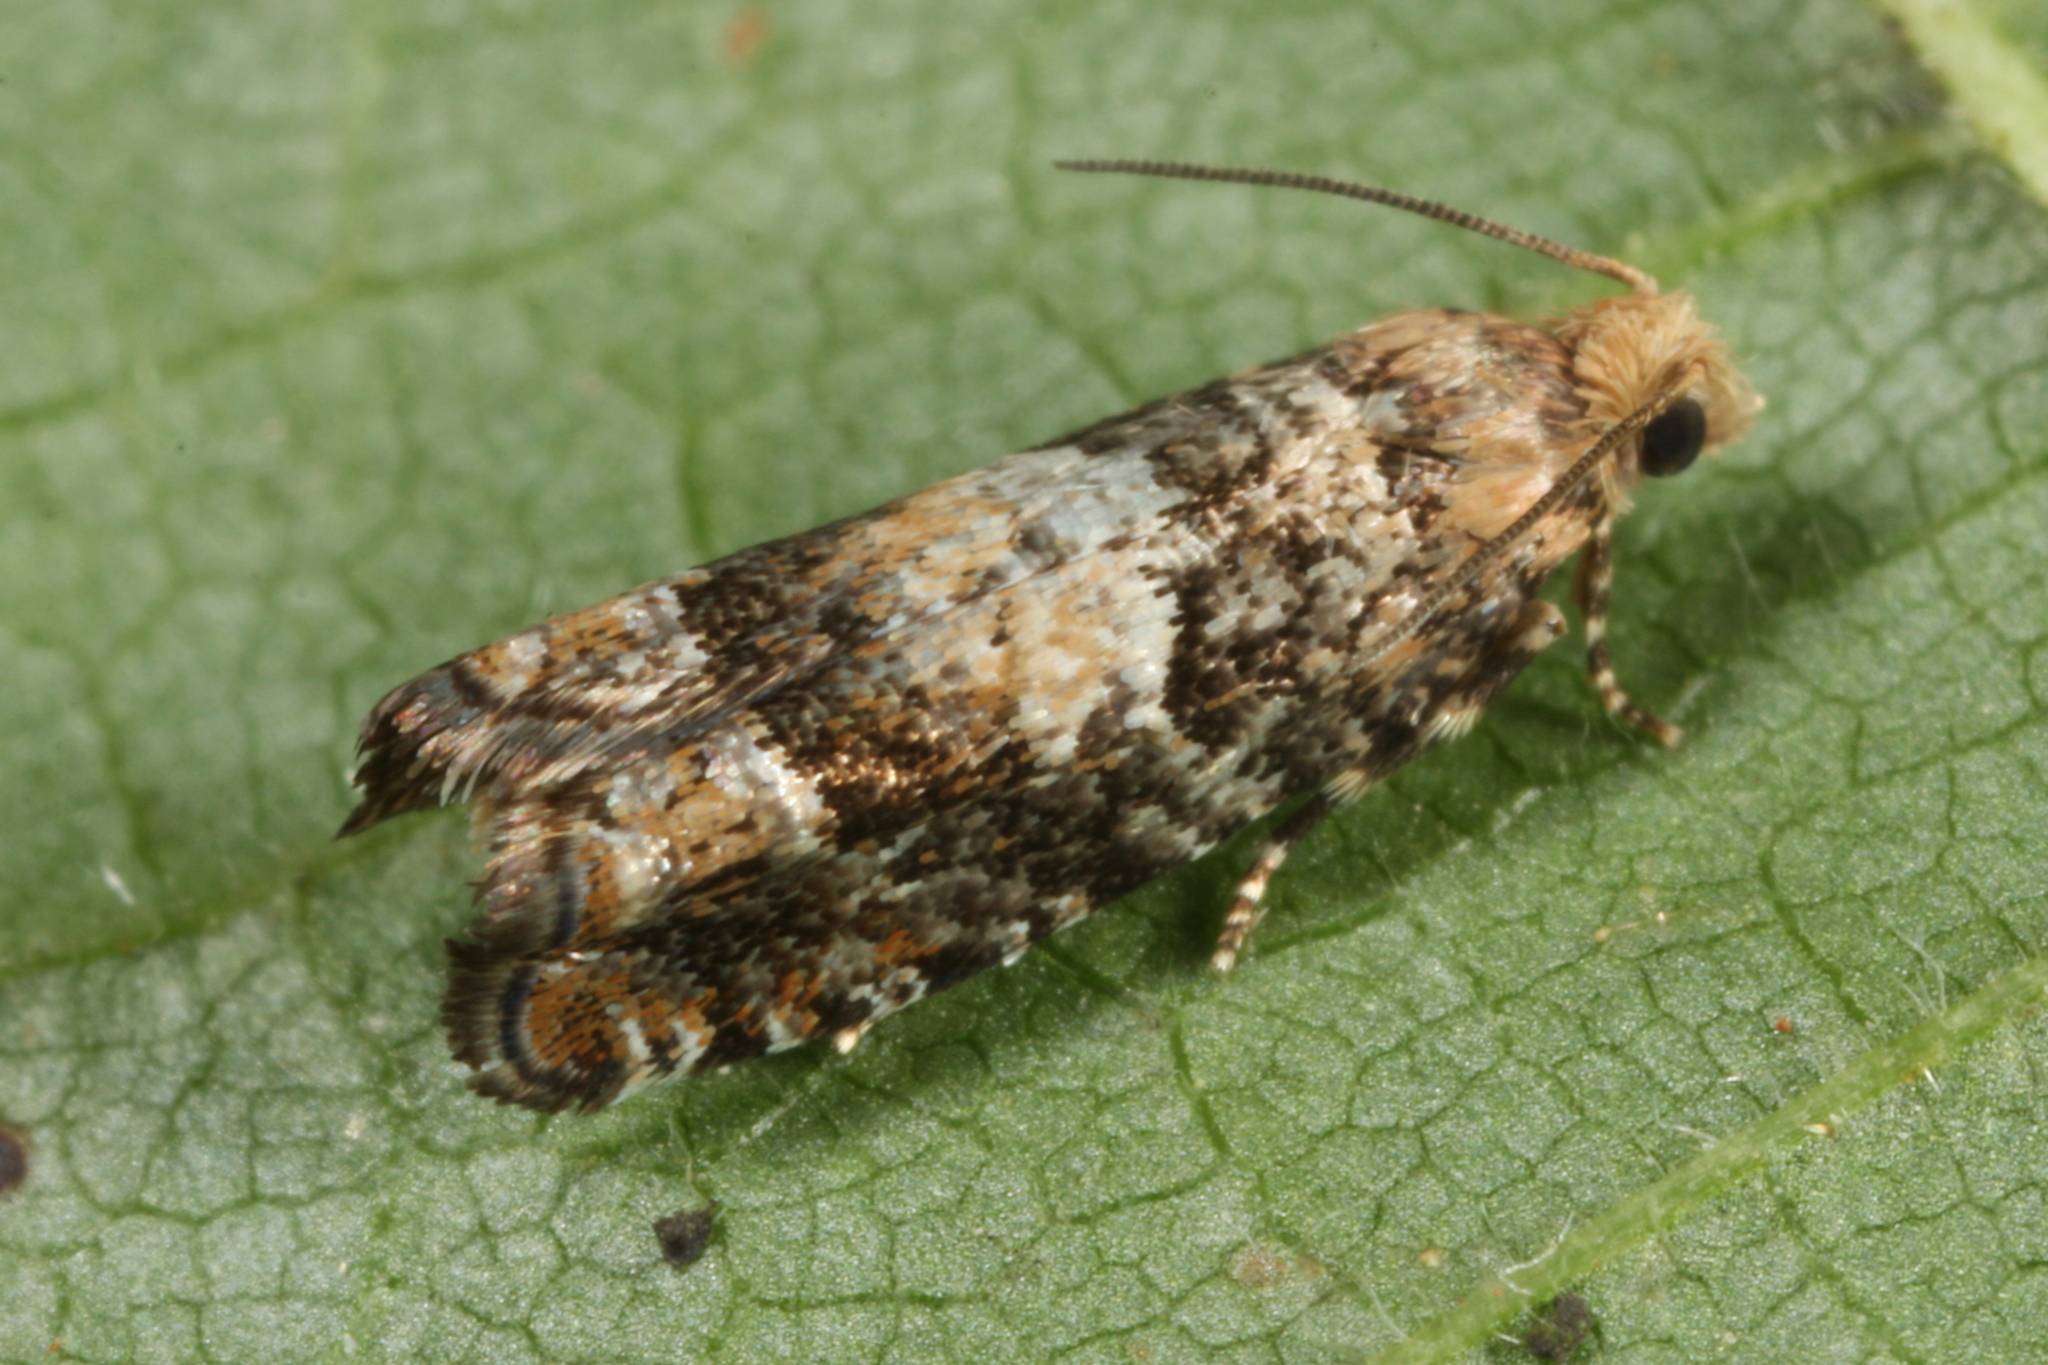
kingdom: Animalia
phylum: Arthropoda
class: Insecta
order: Lepidoptera
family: Tortricidae
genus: Epinotia
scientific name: Epinotia pusillana
